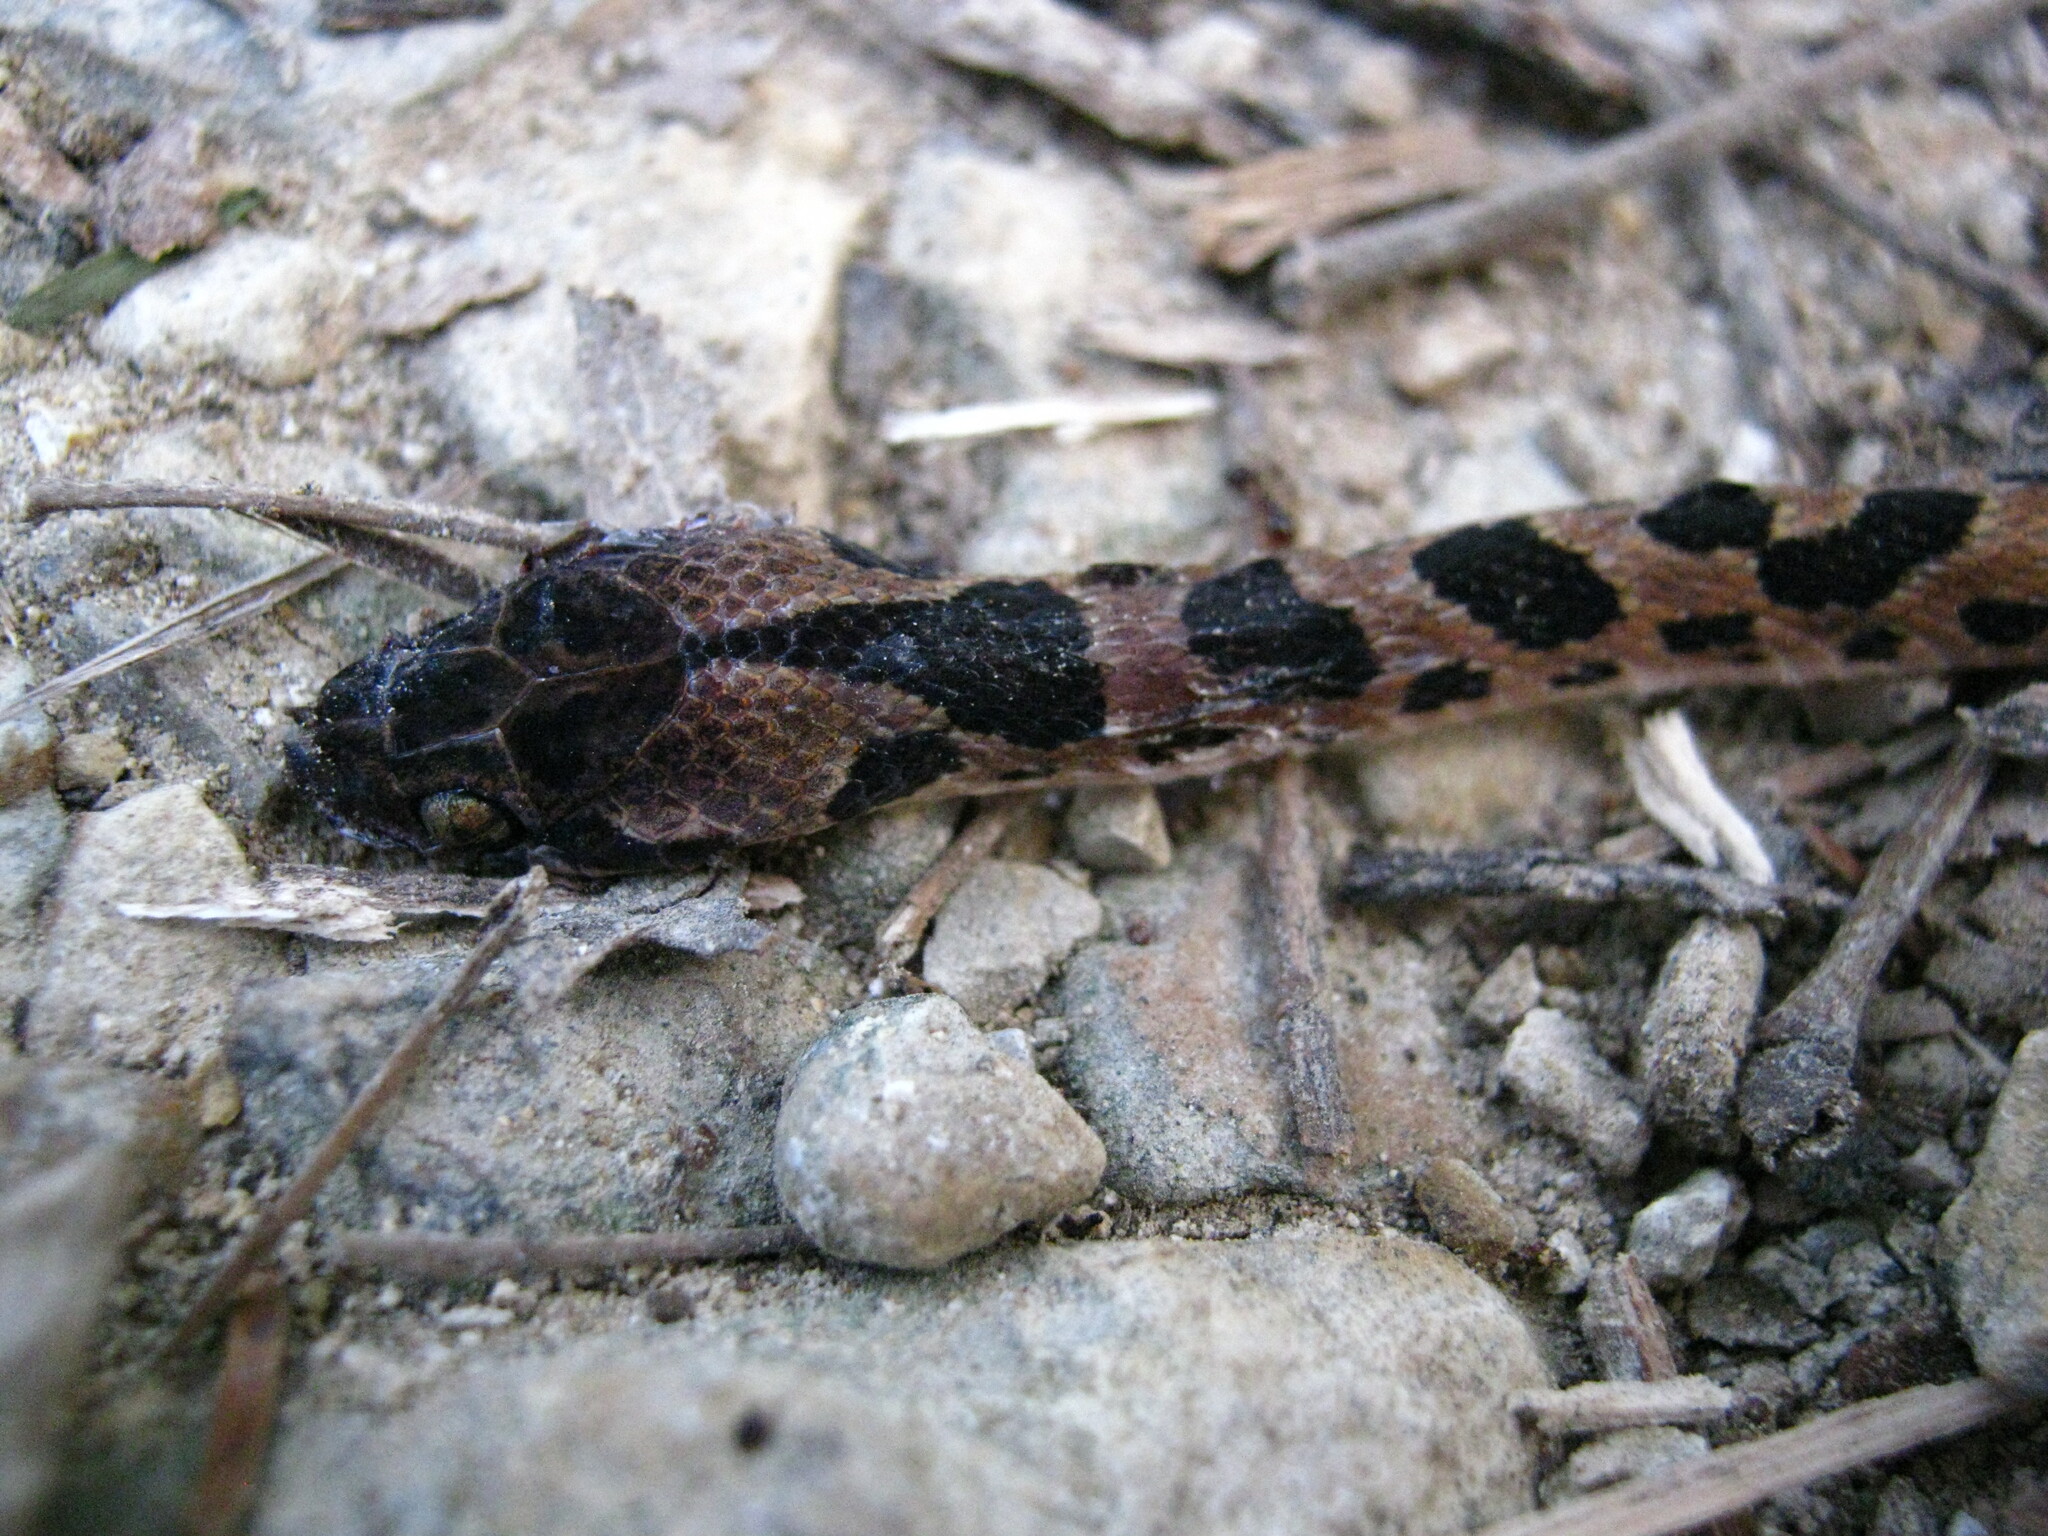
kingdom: Animalia
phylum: Chordata
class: Squamata
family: Colubridae
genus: Leptodeira
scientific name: Leptodeira rhombifera
